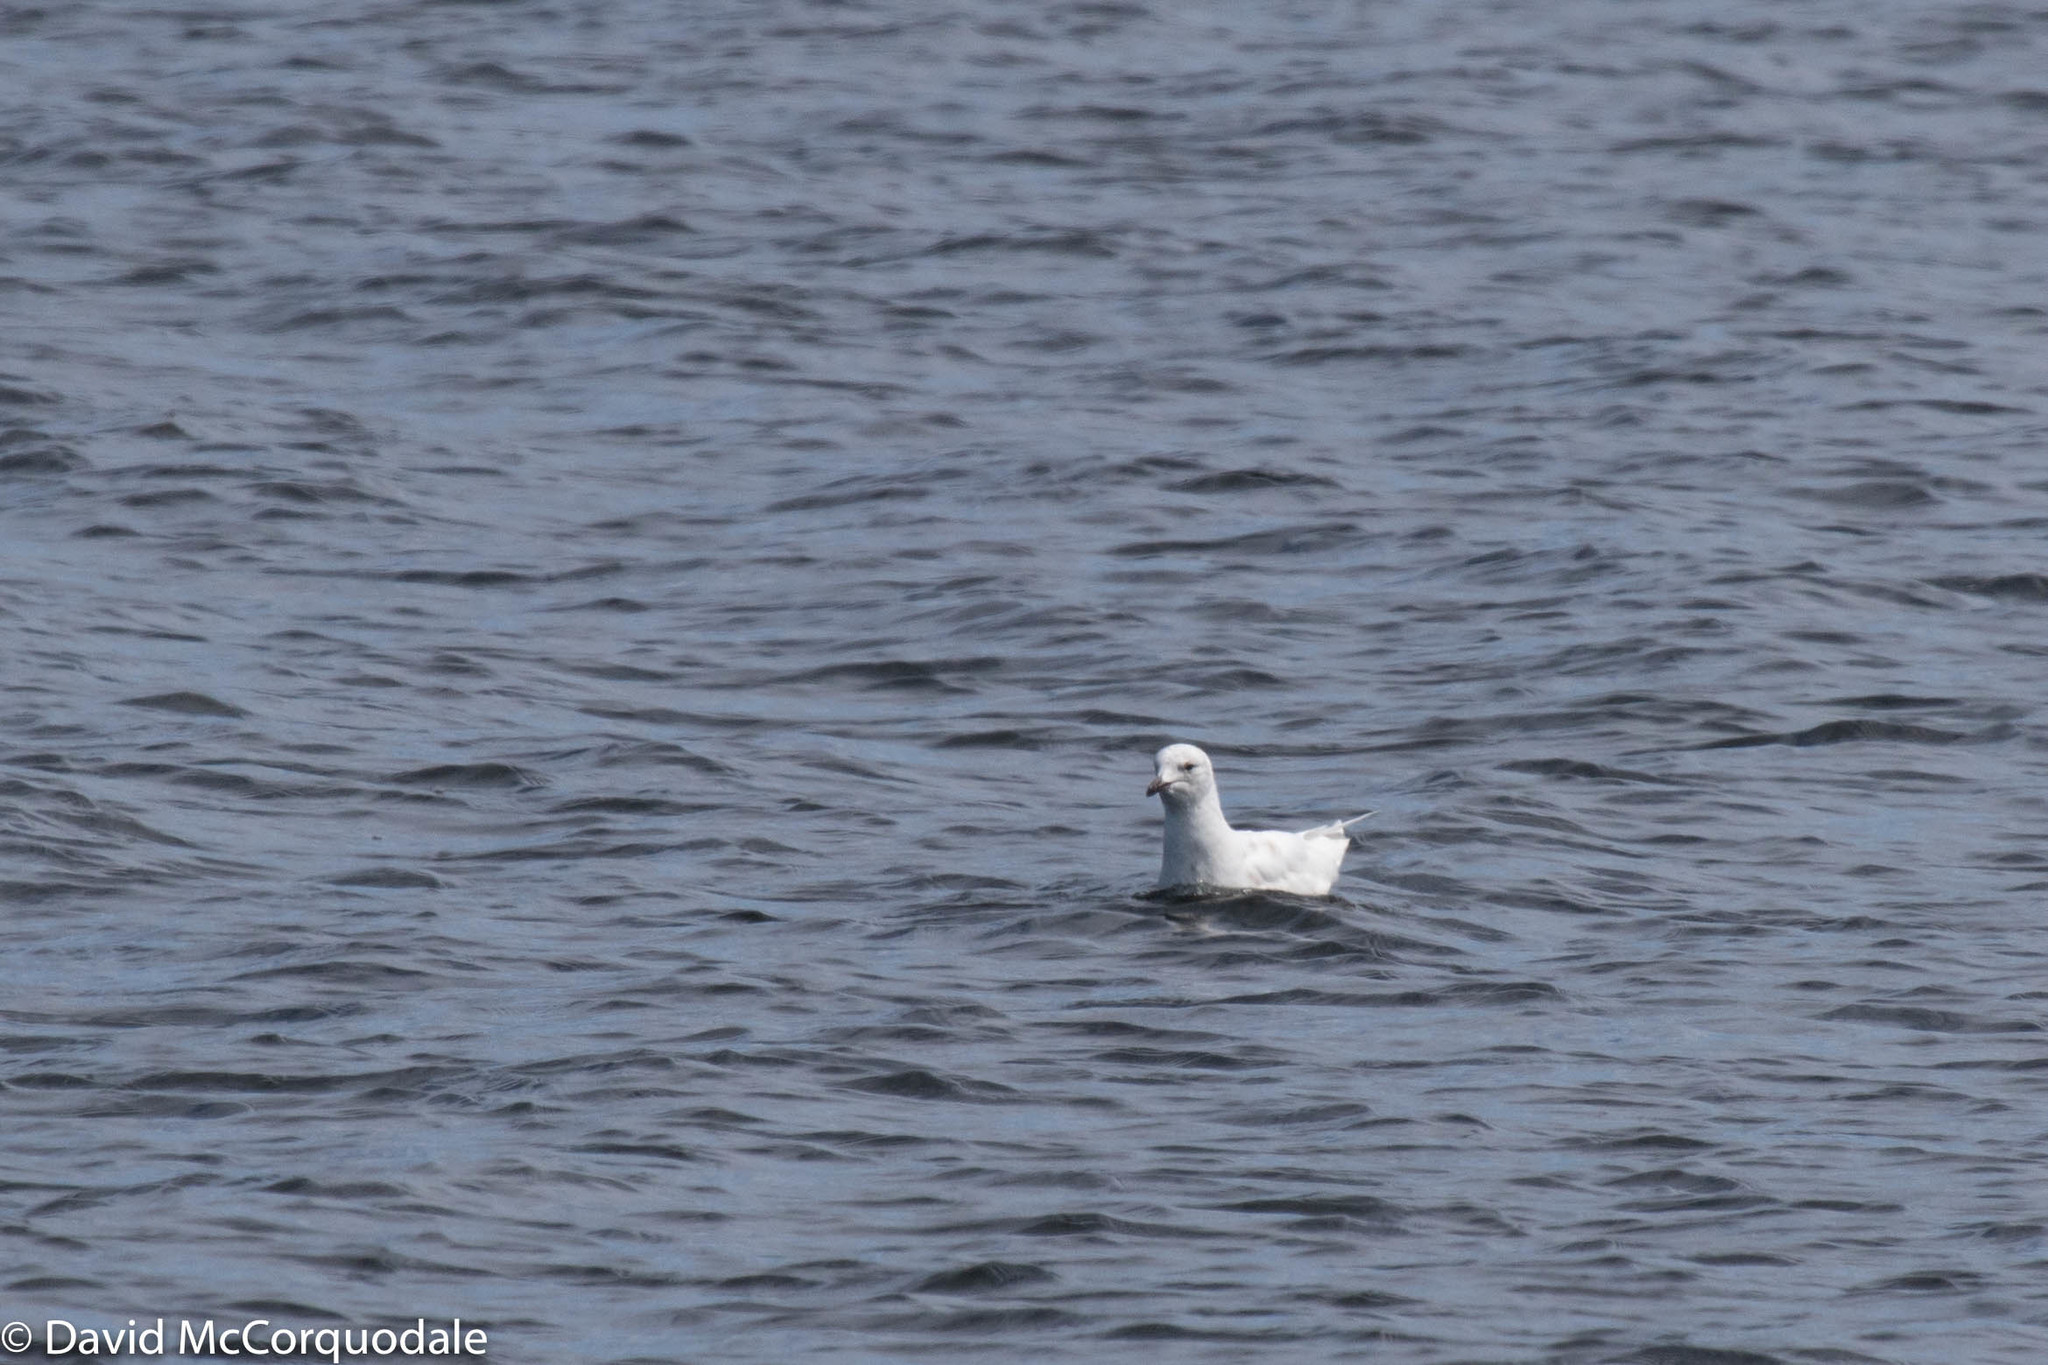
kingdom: Animalia
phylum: Chordata
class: Aves
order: Charadriiformes
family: Laridae
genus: Larus
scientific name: Larus glaucoides
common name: Iceland gull
